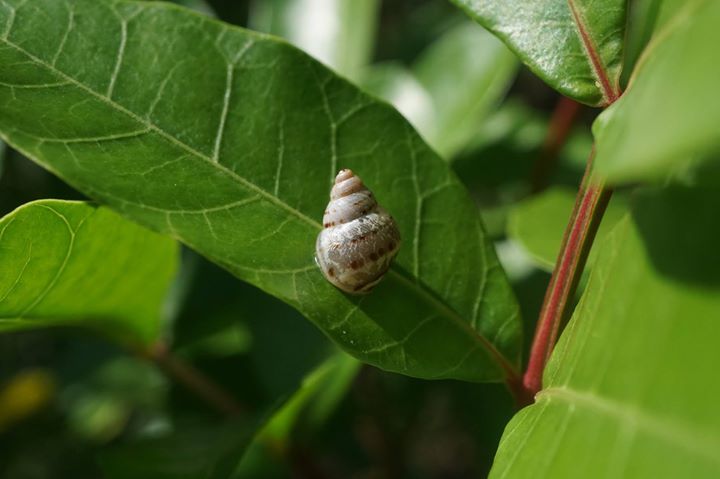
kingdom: Animalia
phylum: Mollusca
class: Gastropoda
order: Stylommatophora
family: Bulimulidae
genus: Drymaeus
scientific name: Drymaeus
